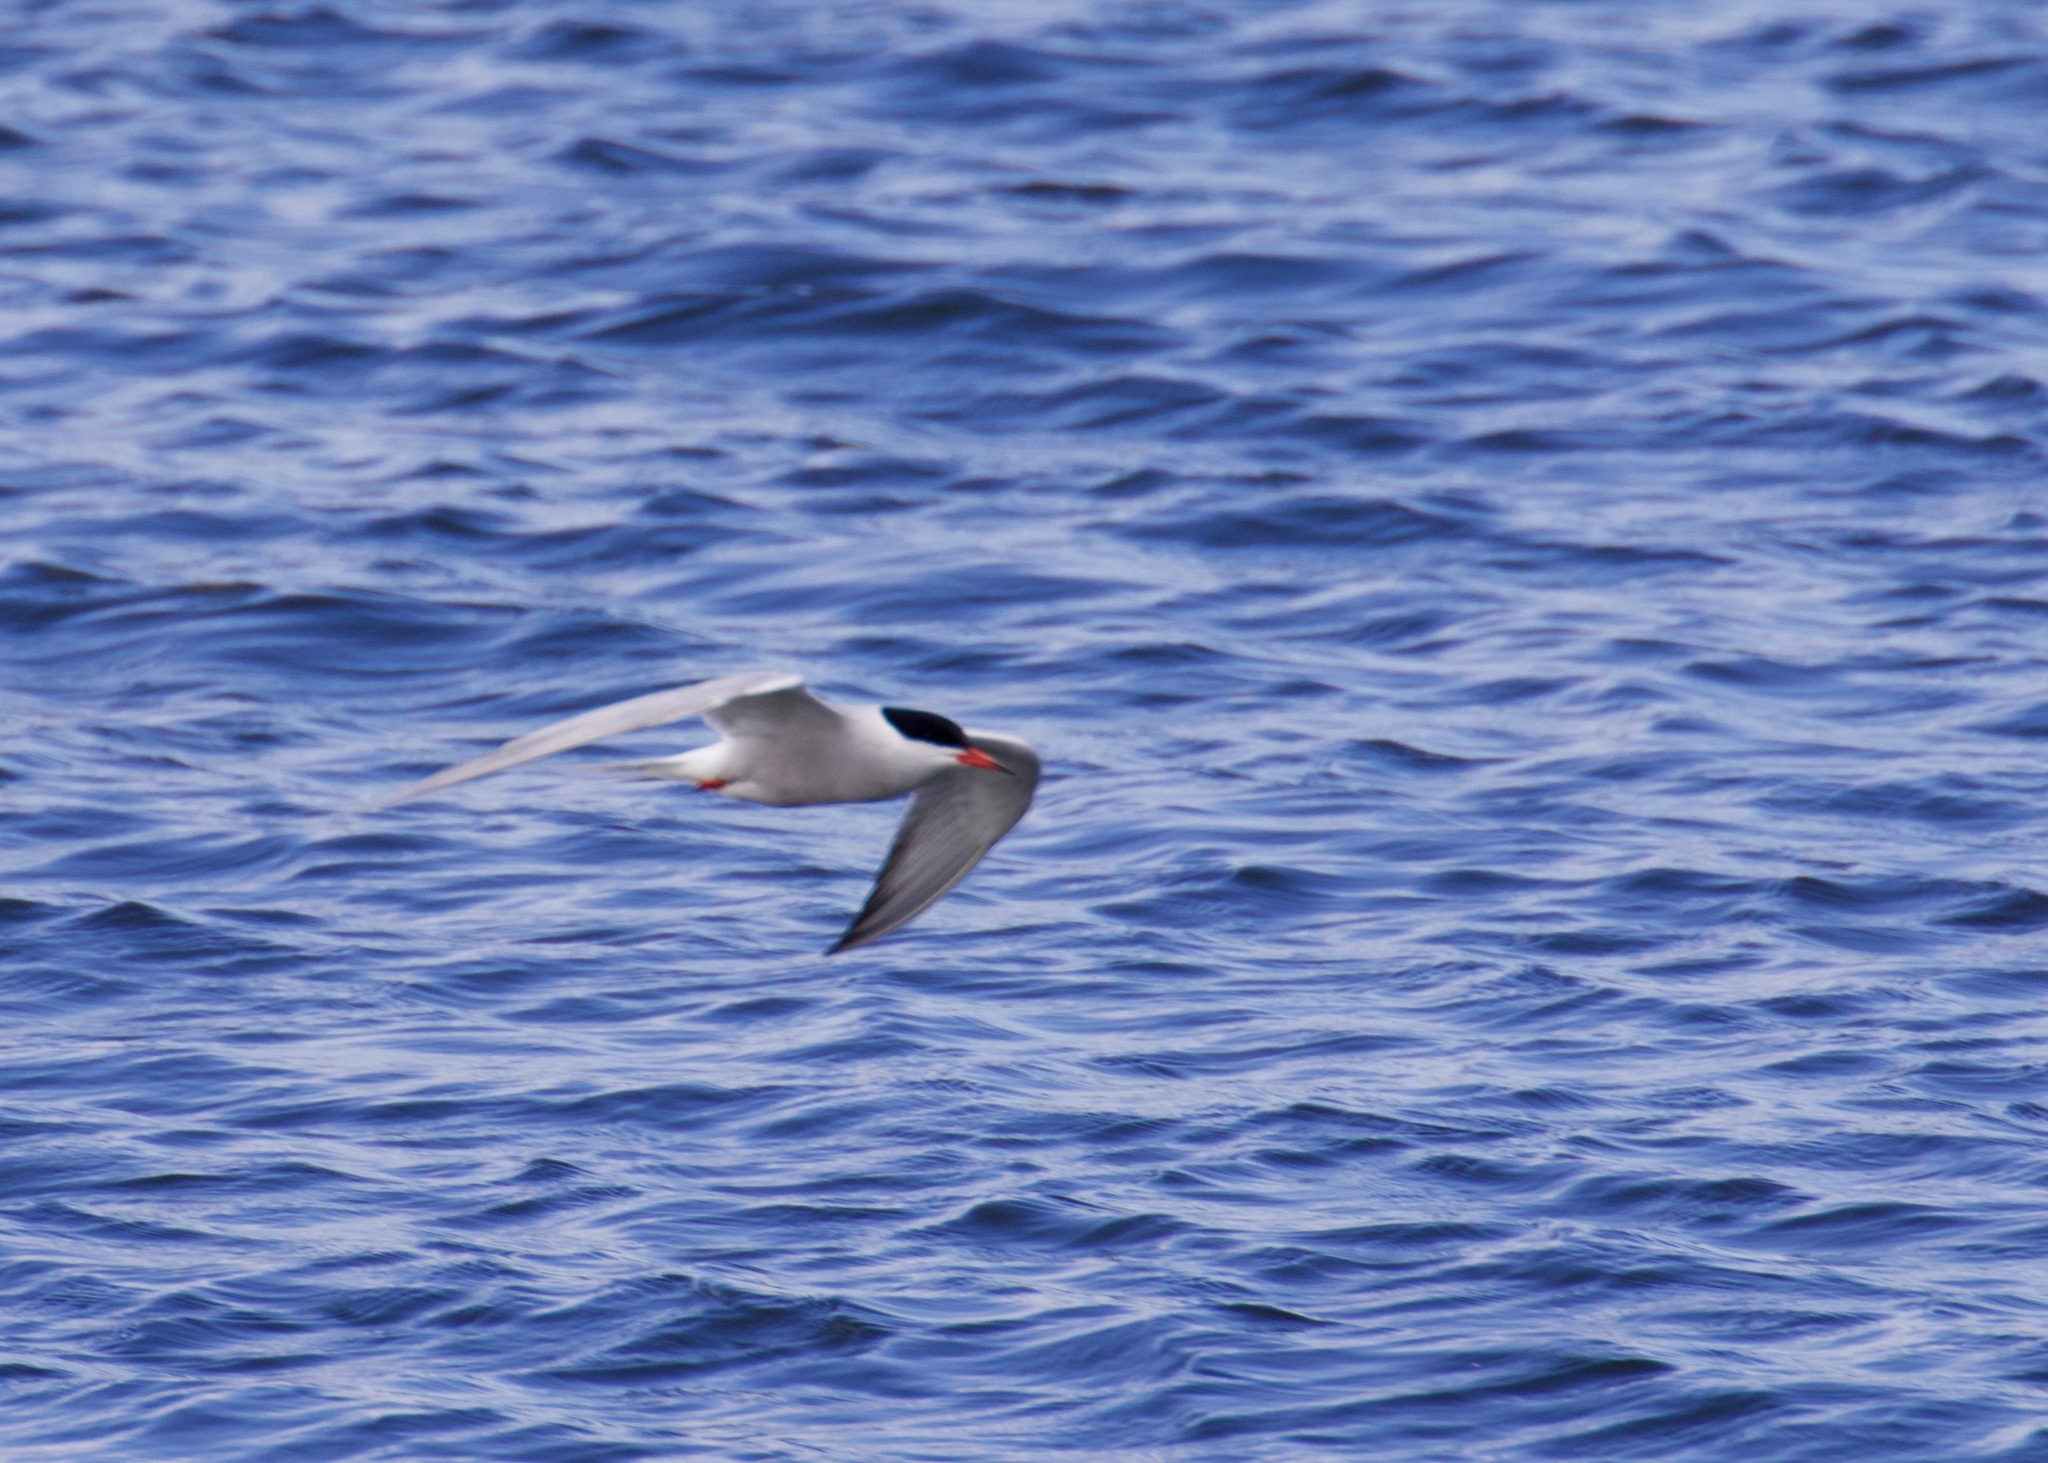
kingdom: Animalia
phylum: Chordata
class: Aves
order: Charadriiformes
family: Laridae
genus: Sterna
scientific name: Sterna hirundo
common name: Common tern
